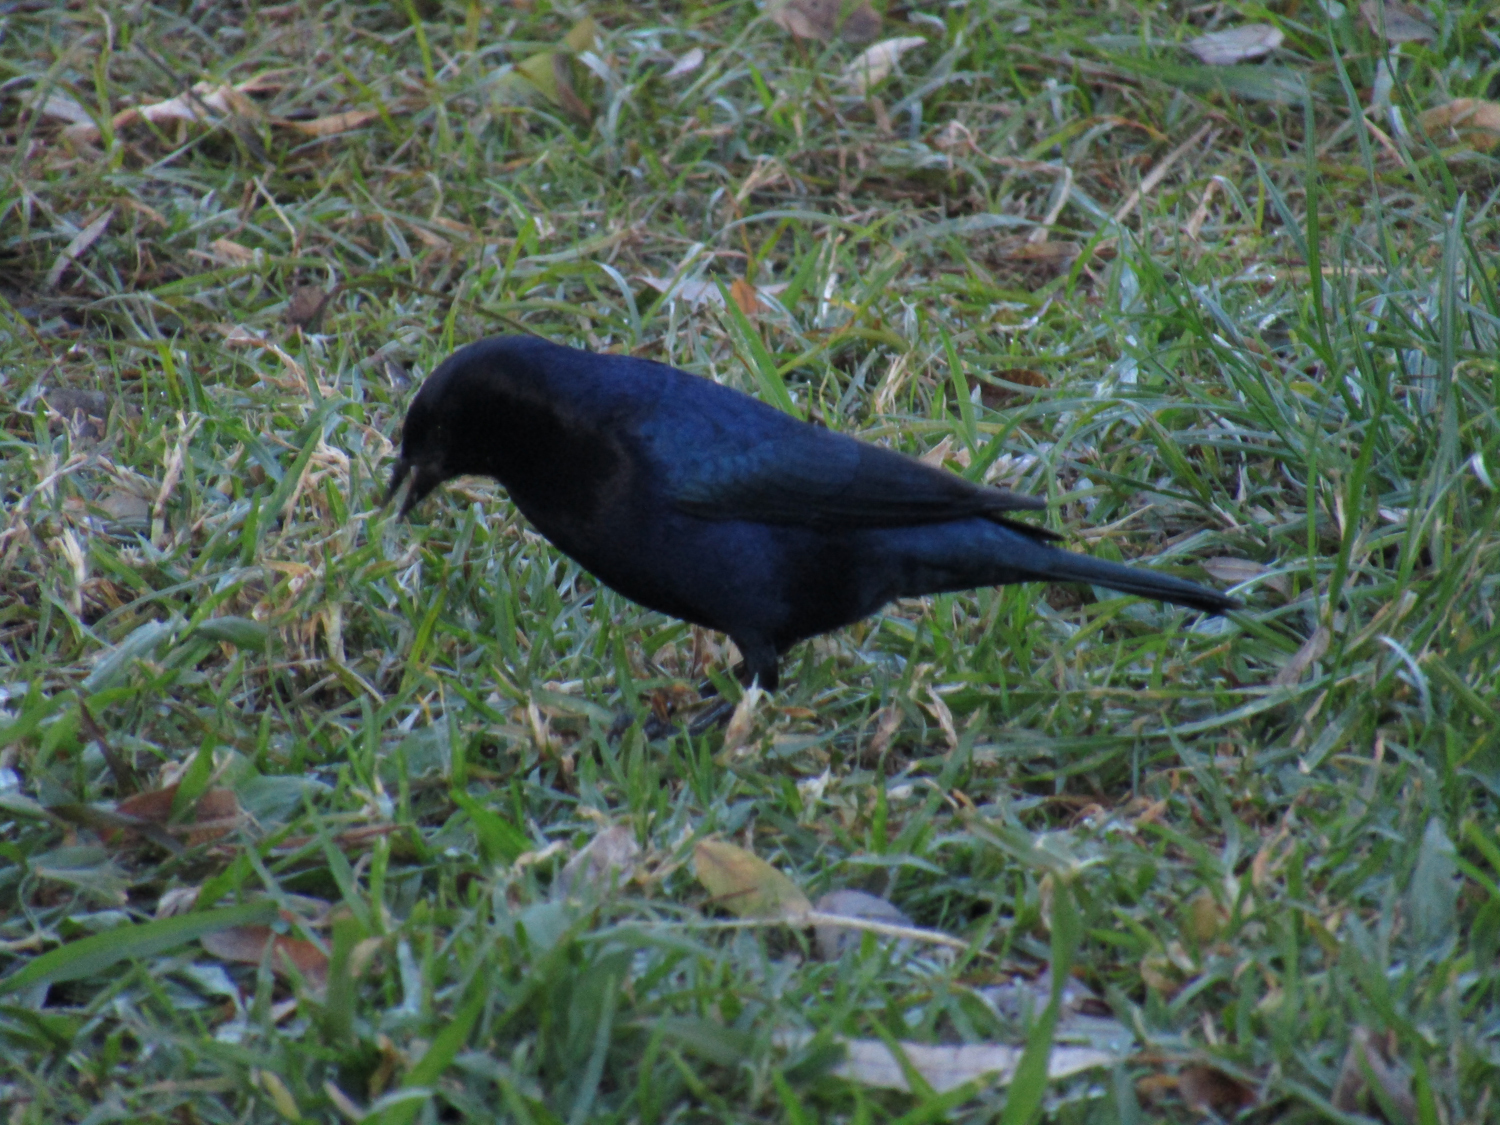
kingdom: Animalia
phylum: Chordata
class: Aves
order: Passeriformes
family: Icteridae
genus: Molothrus
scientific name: Molothrus bonariensis
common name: Shiny cowbird
